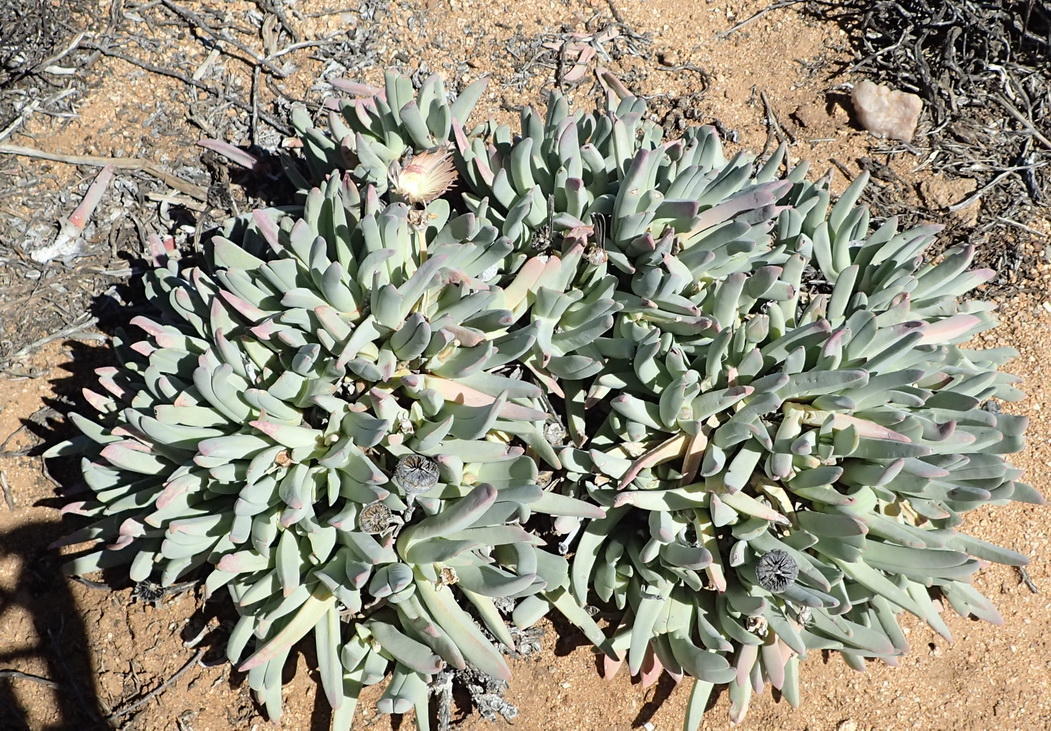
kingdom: Plantae
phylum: Tracheophyta
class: Magnoliopsida
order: Caryophyllales
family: Aizoaceae
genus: Cheiridopsis
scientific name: Cheiridopsis denticulata
